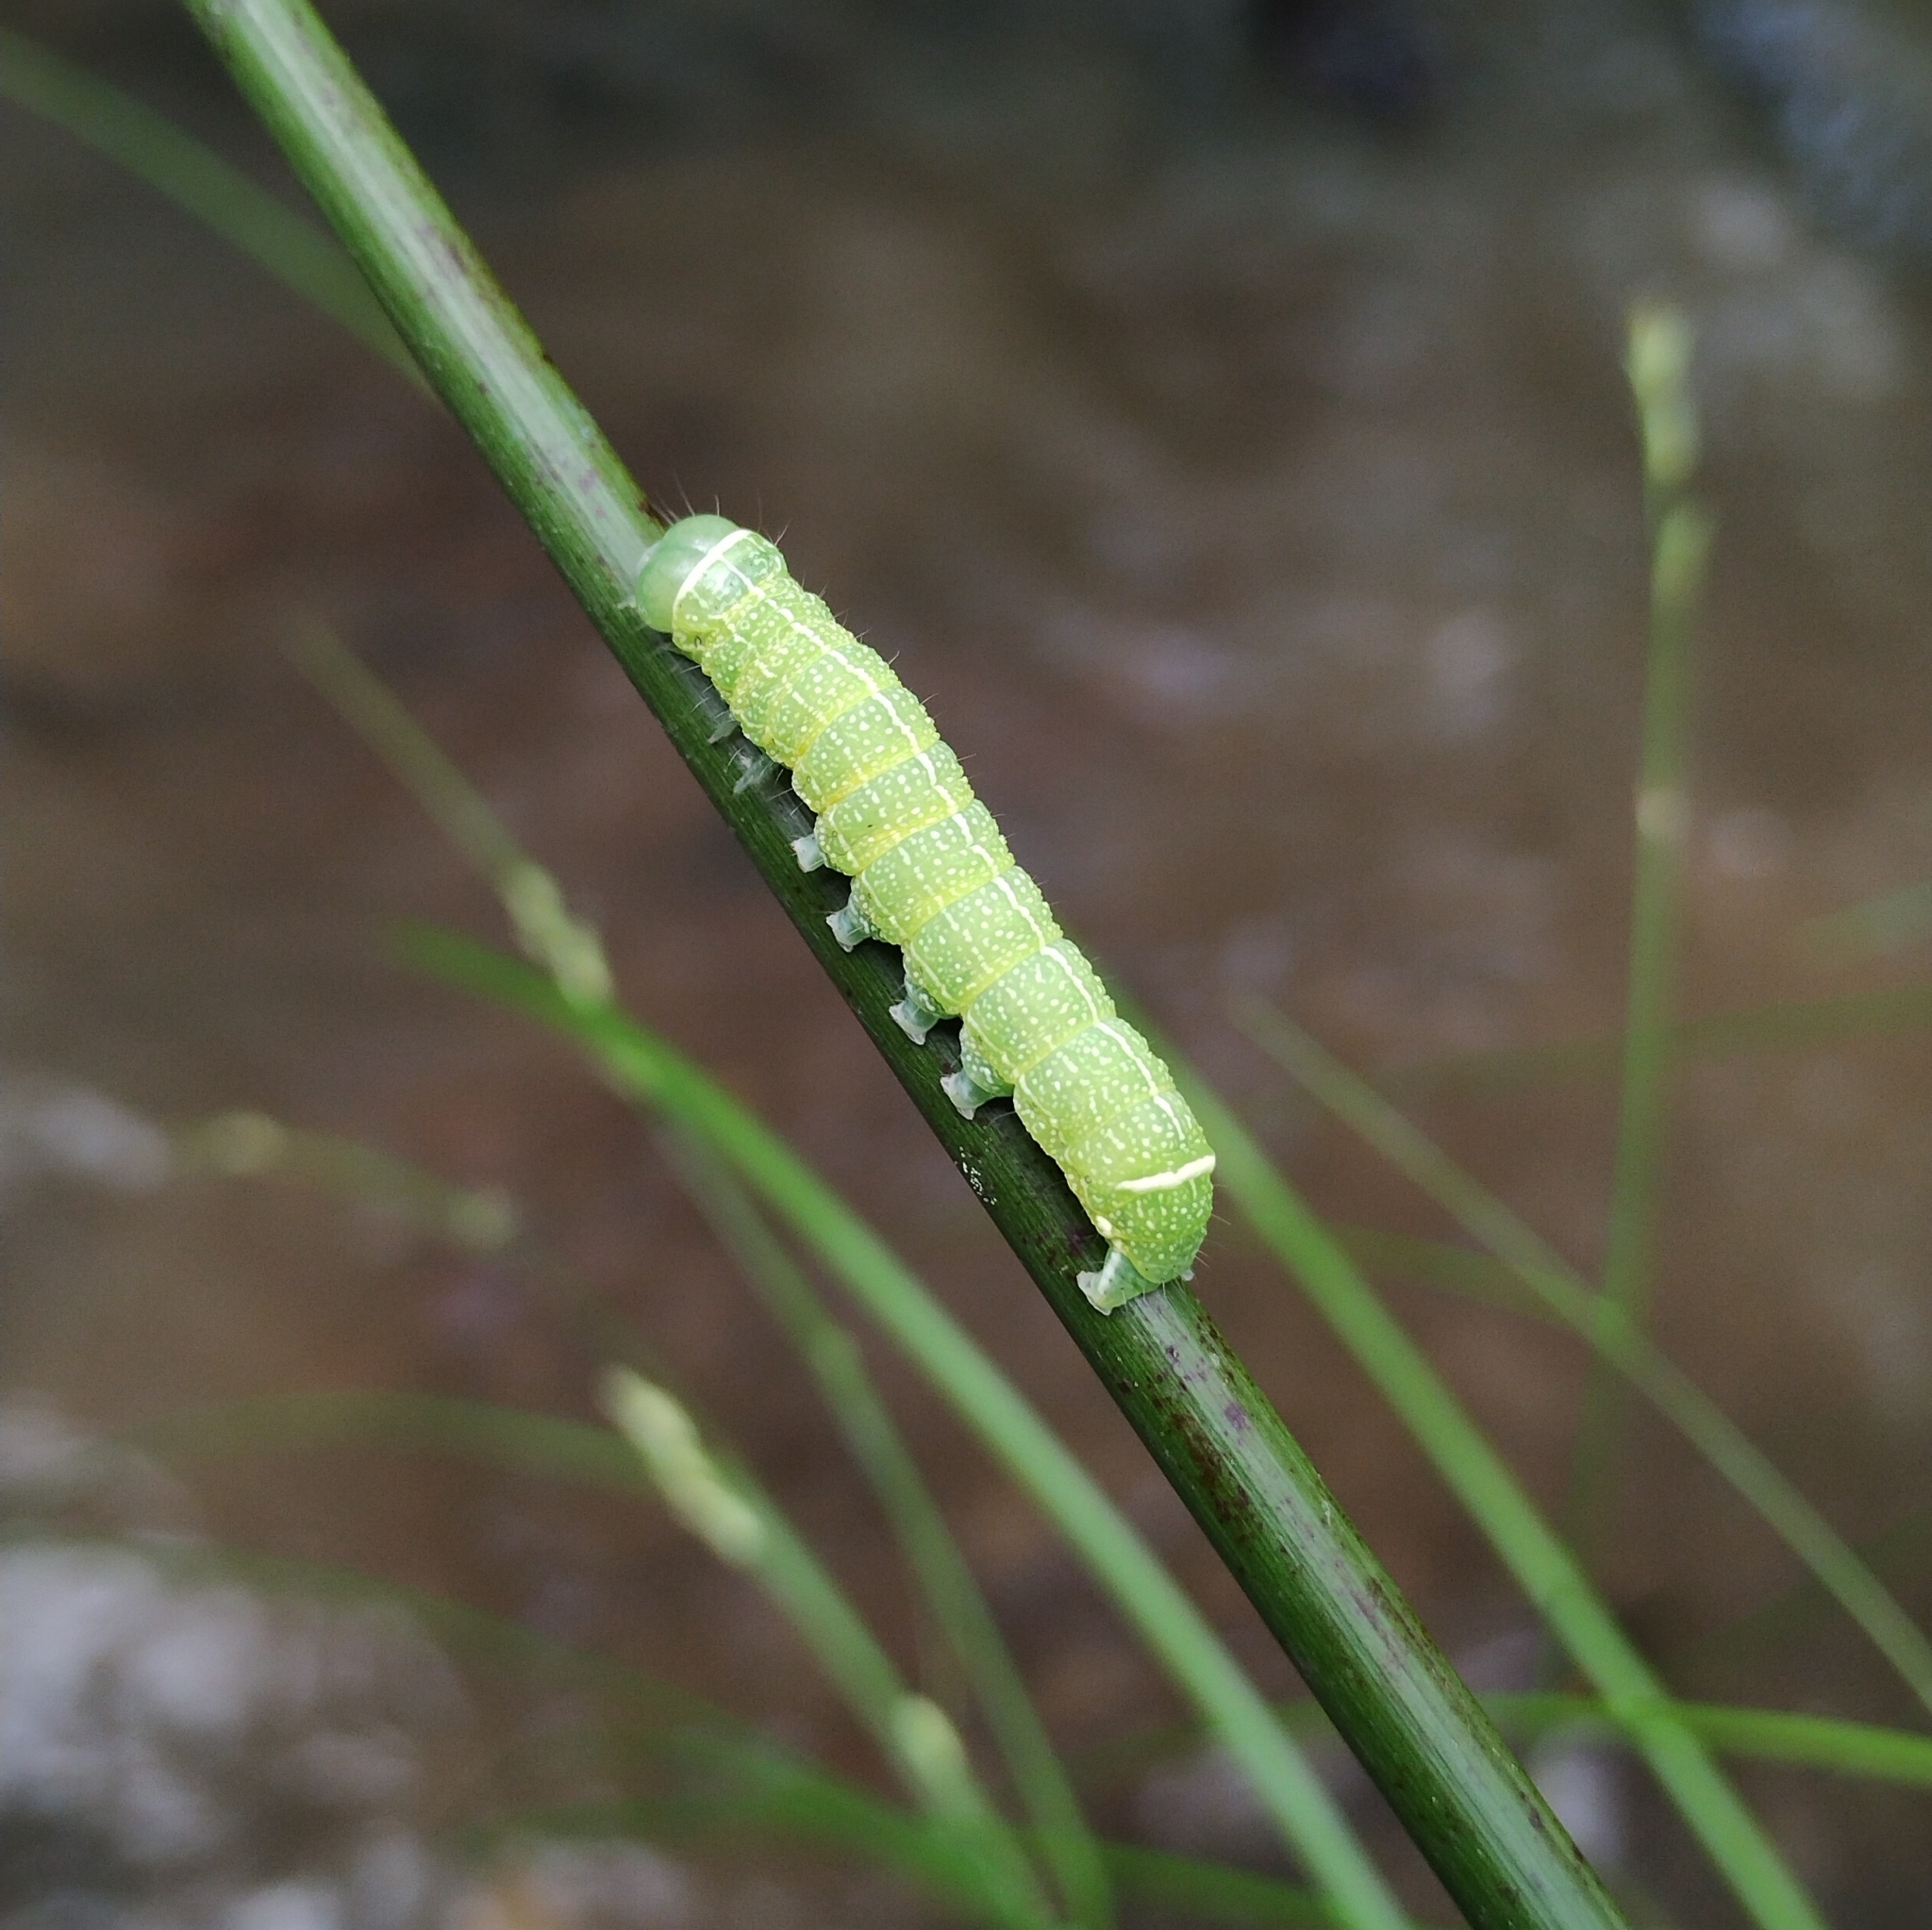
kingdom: Animalia
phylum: Arthropoda
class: Insecta
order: Lepidoptera
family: Noctuidae
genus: Orthosia
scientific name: Orthosia cerasi
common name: Common quaker
